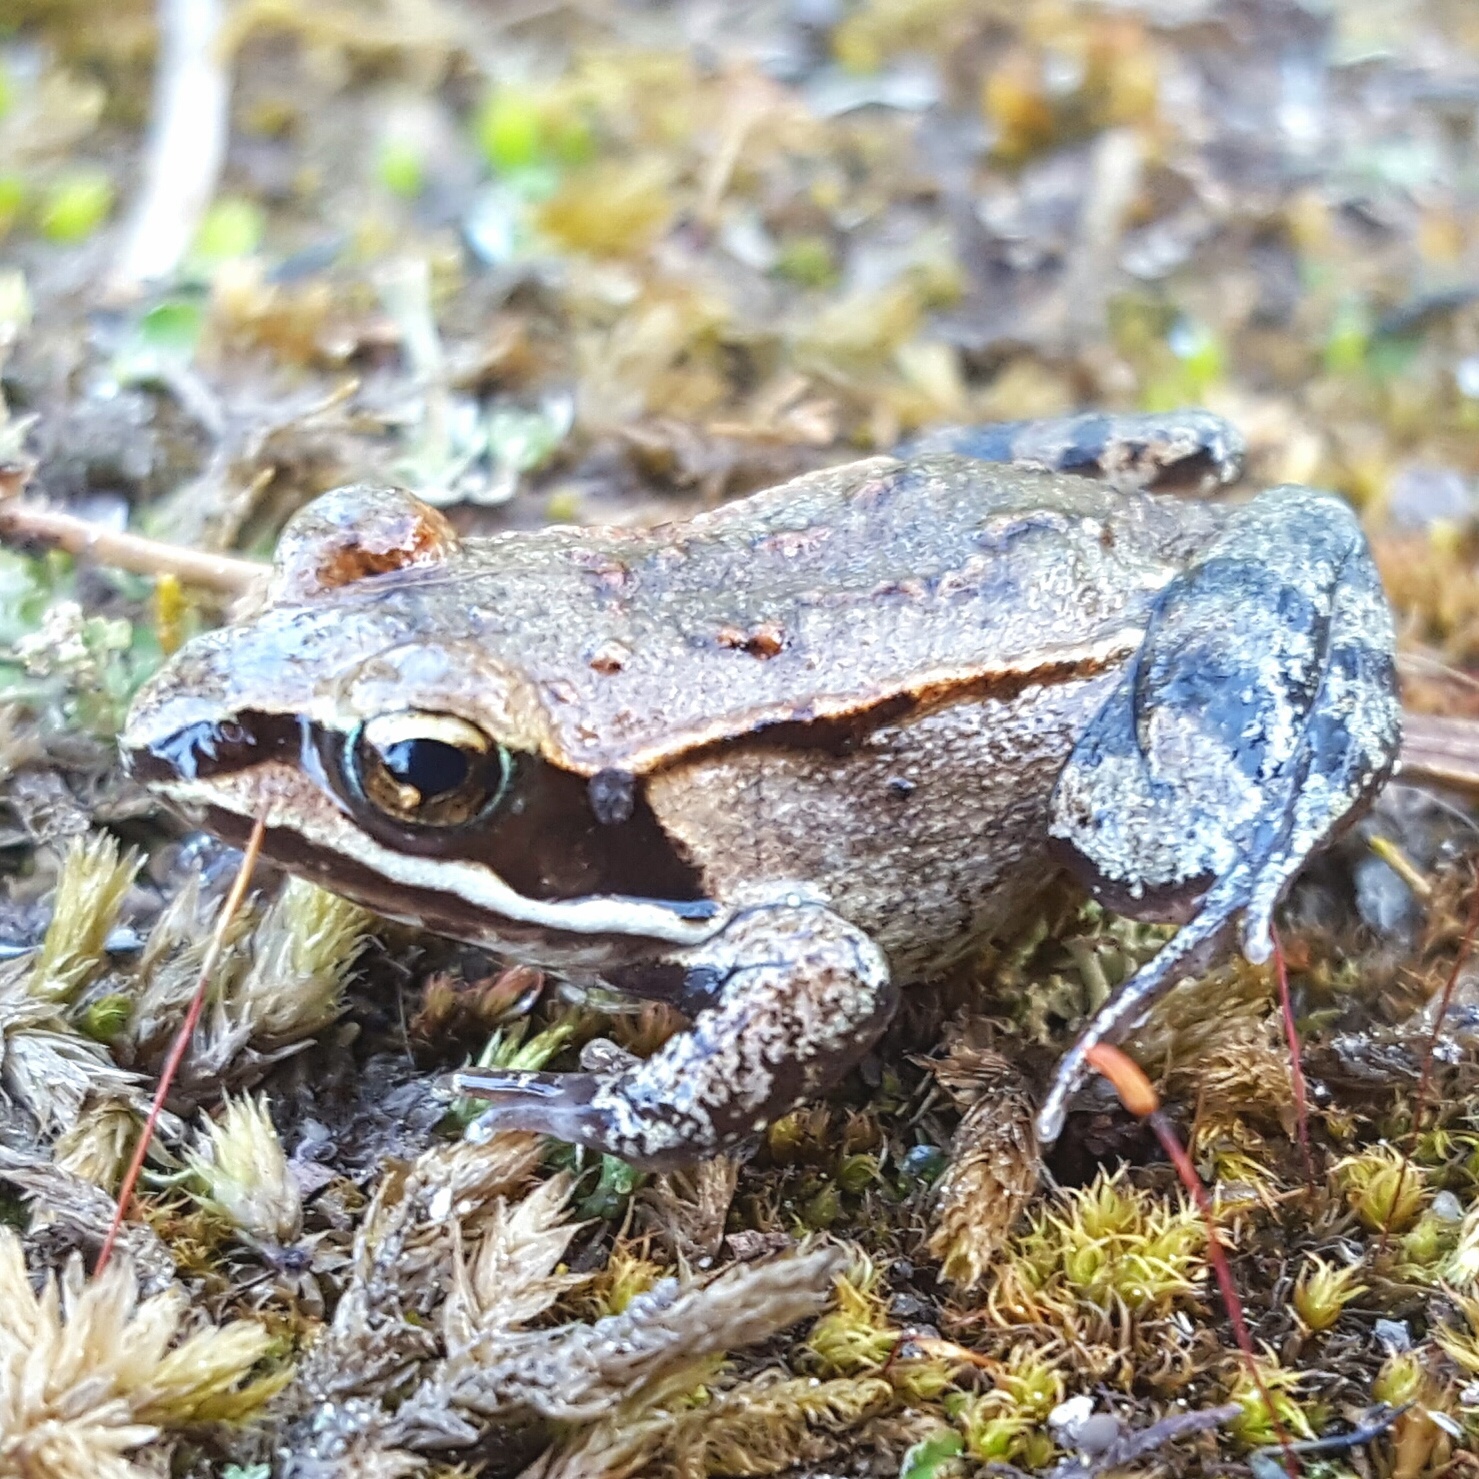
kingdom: Animalia
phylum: Chordata
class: Amphibia
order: Anura
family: Ranidae
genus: Lithobates
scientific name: Lithobates sylvaticus
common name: Wood frog
